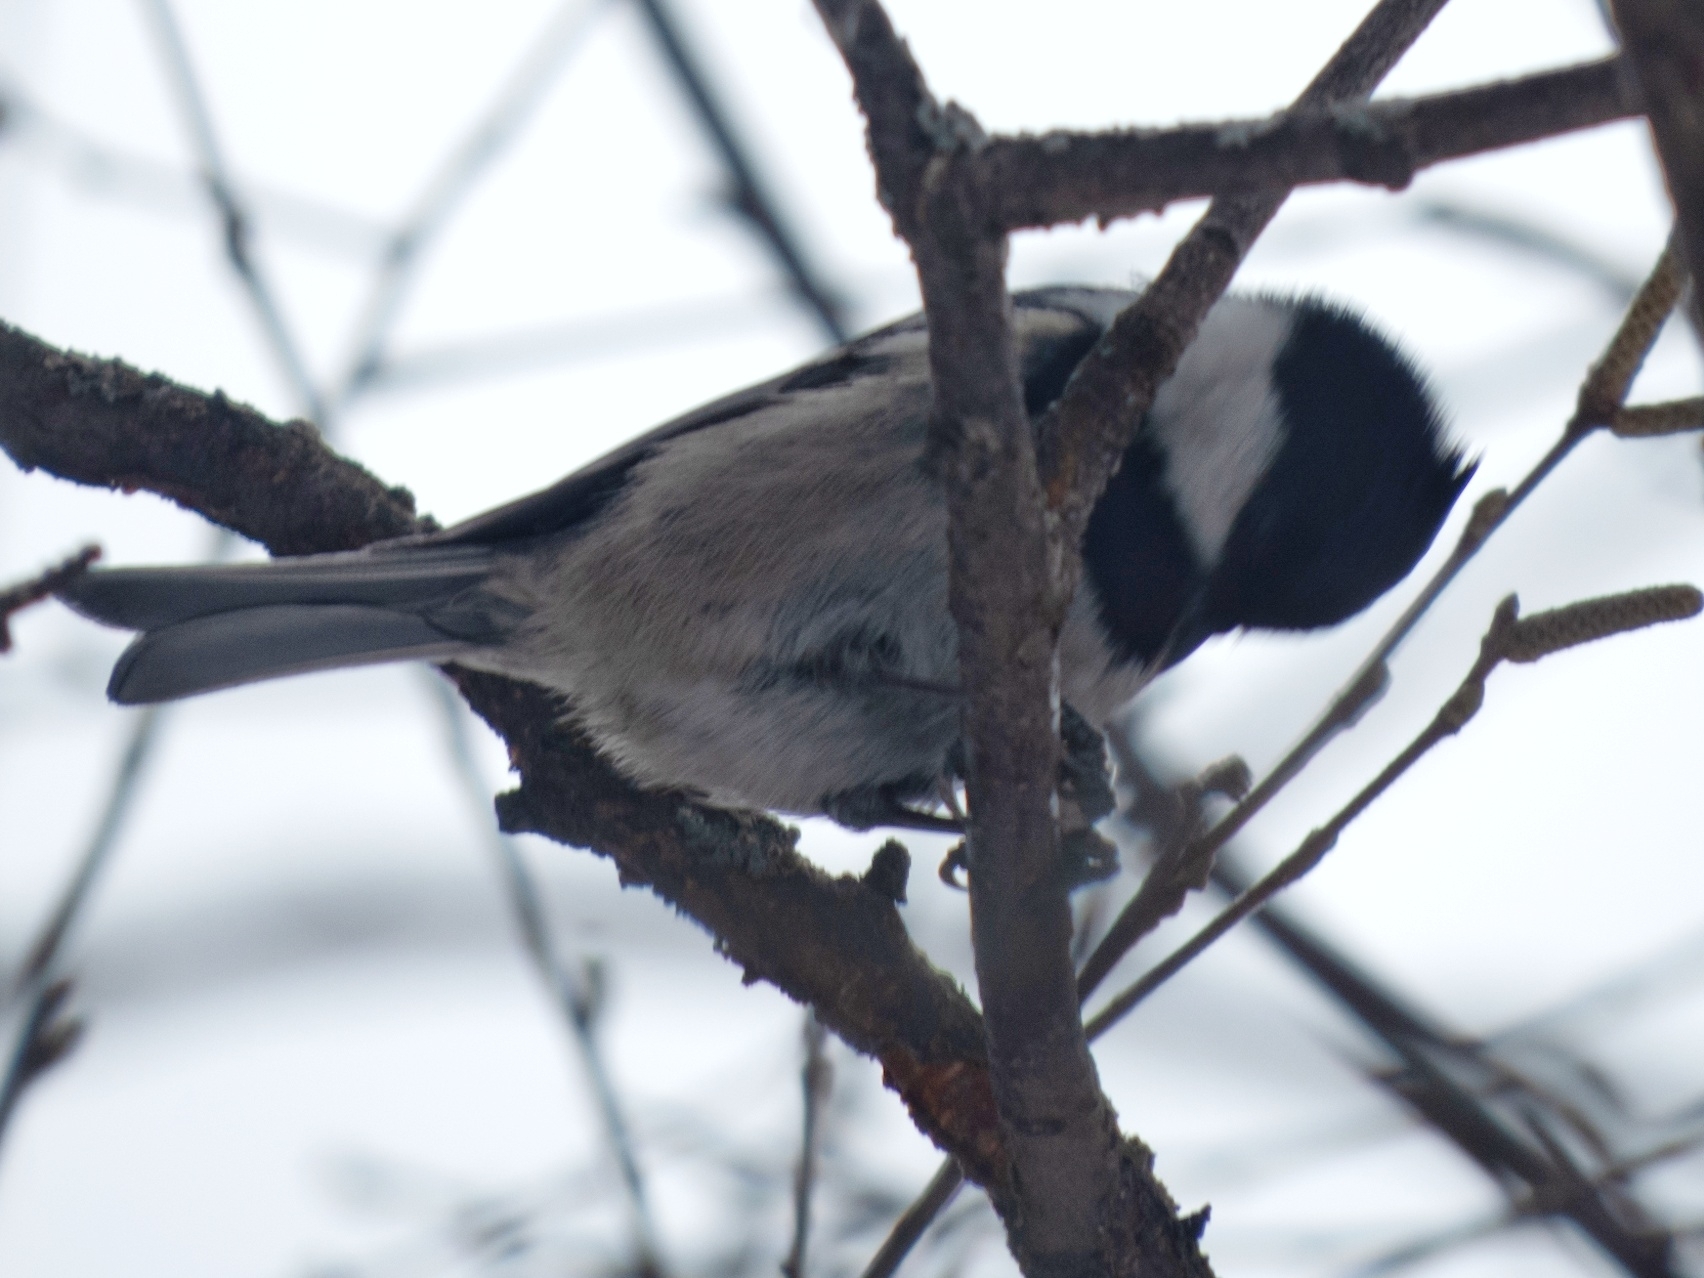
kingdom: Animalia
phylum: Chordata
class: Aves
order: Passeriformes
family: Paridae
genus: Periparus
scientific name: Periparus ater
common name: Coal tit
